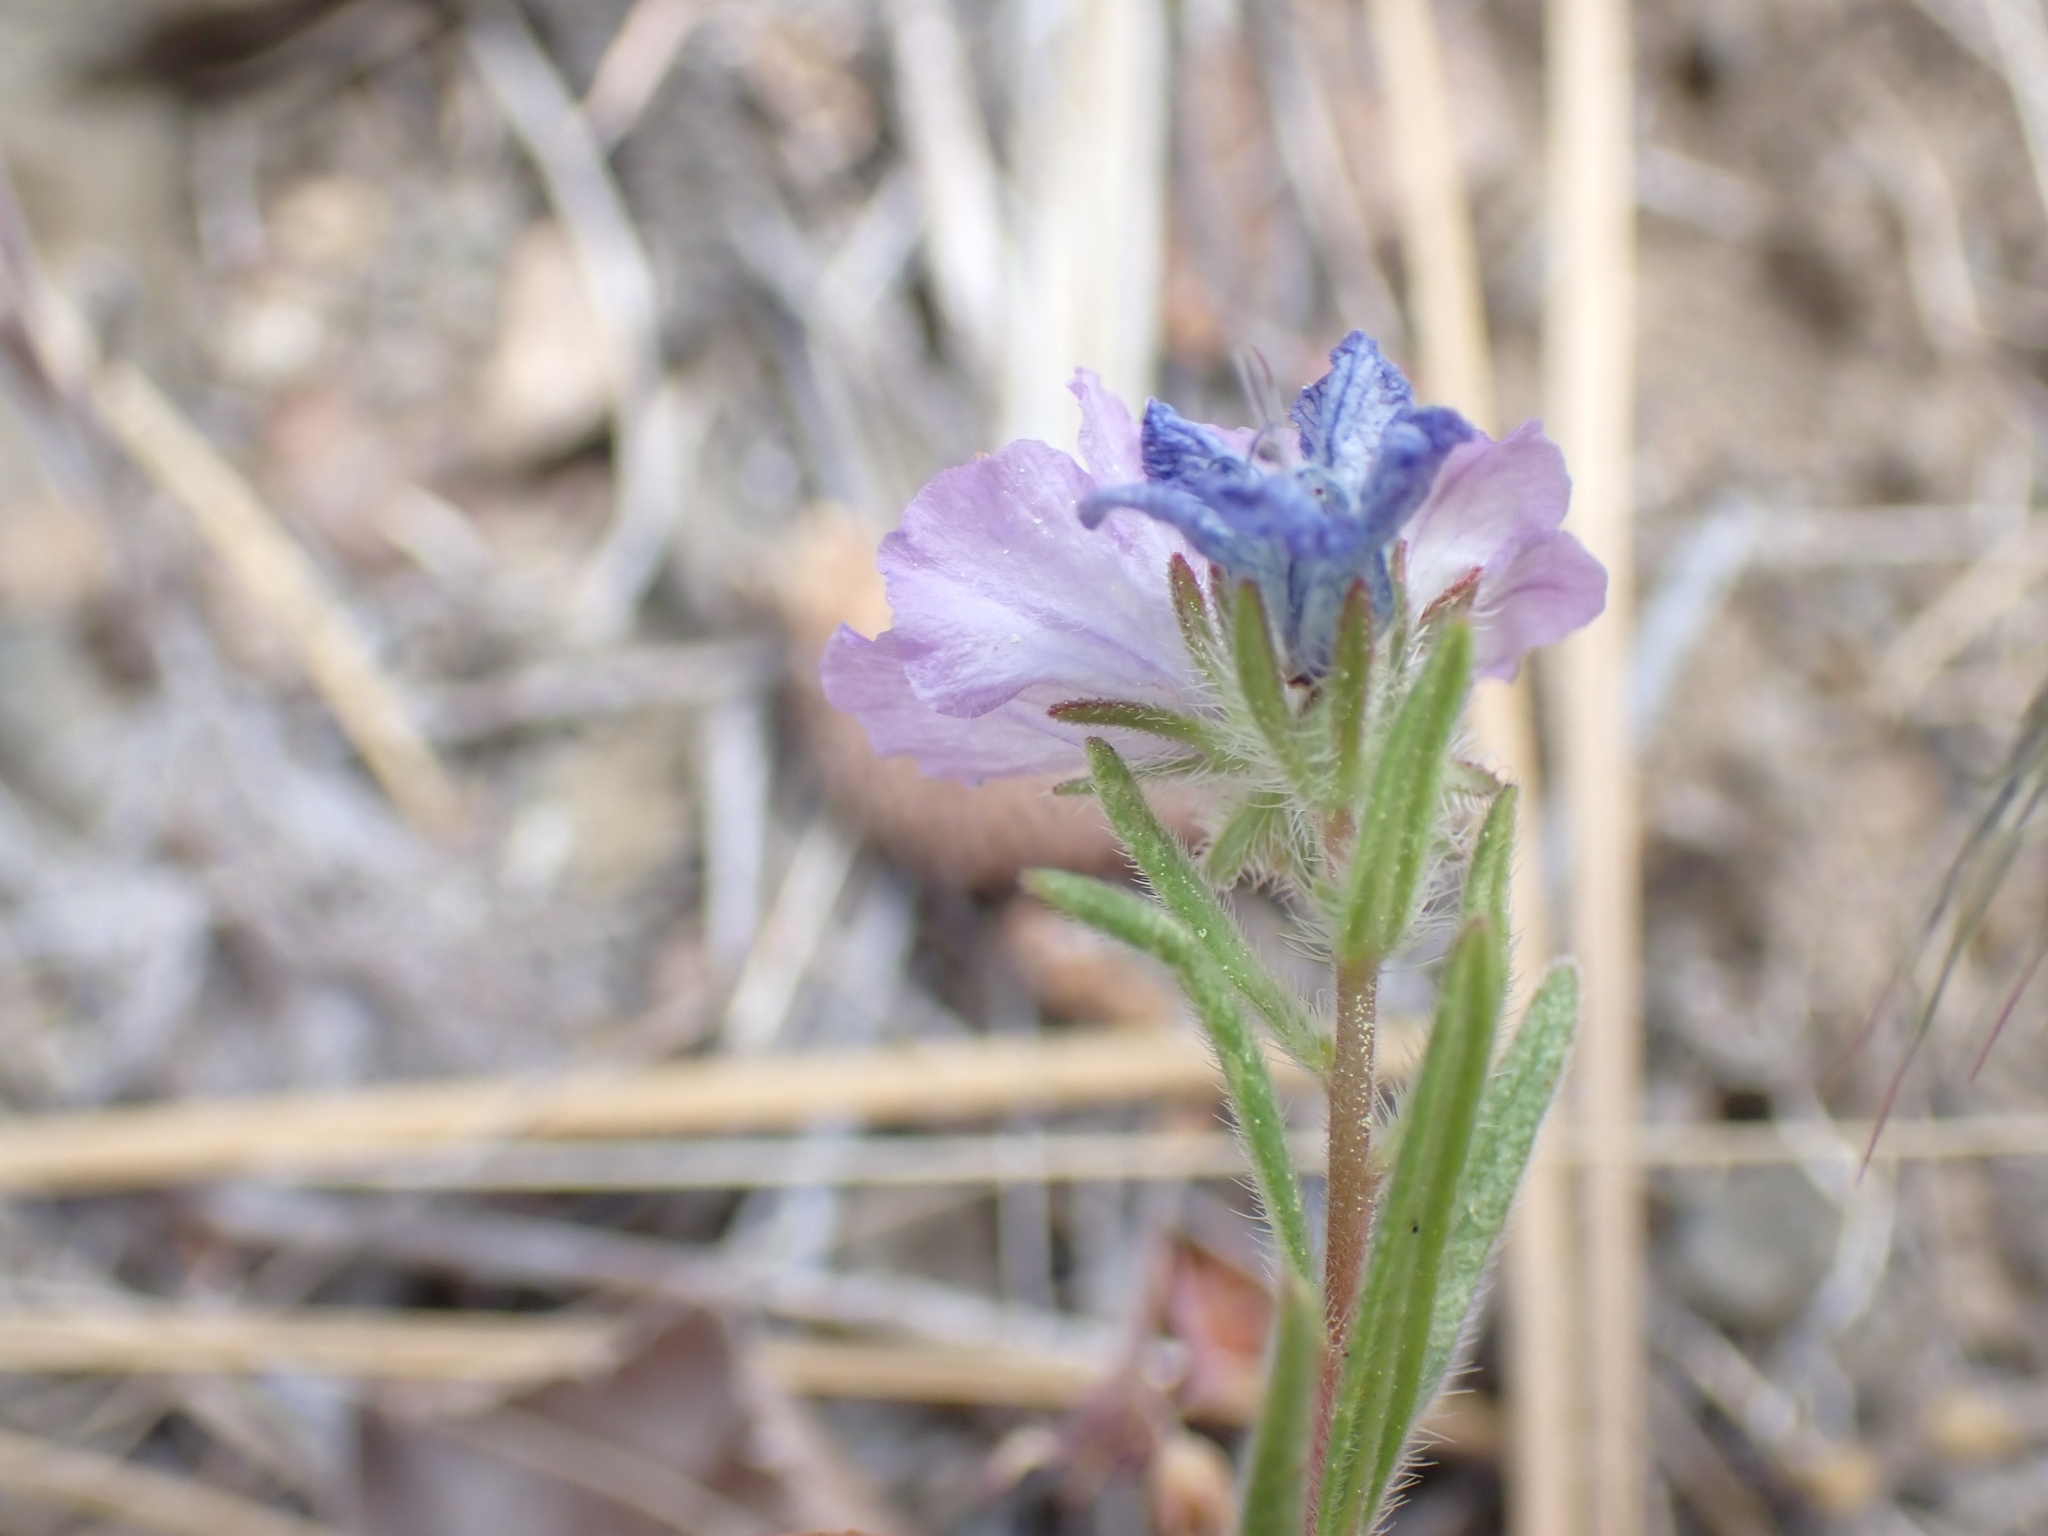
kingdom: Plantae
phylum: Tracheophyta
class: Magnoliopsida
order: Boraginales
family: Hydrophyllaceae
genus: Phacelia
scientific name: Phacelia linearis
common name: Linear-leaved phacelia
